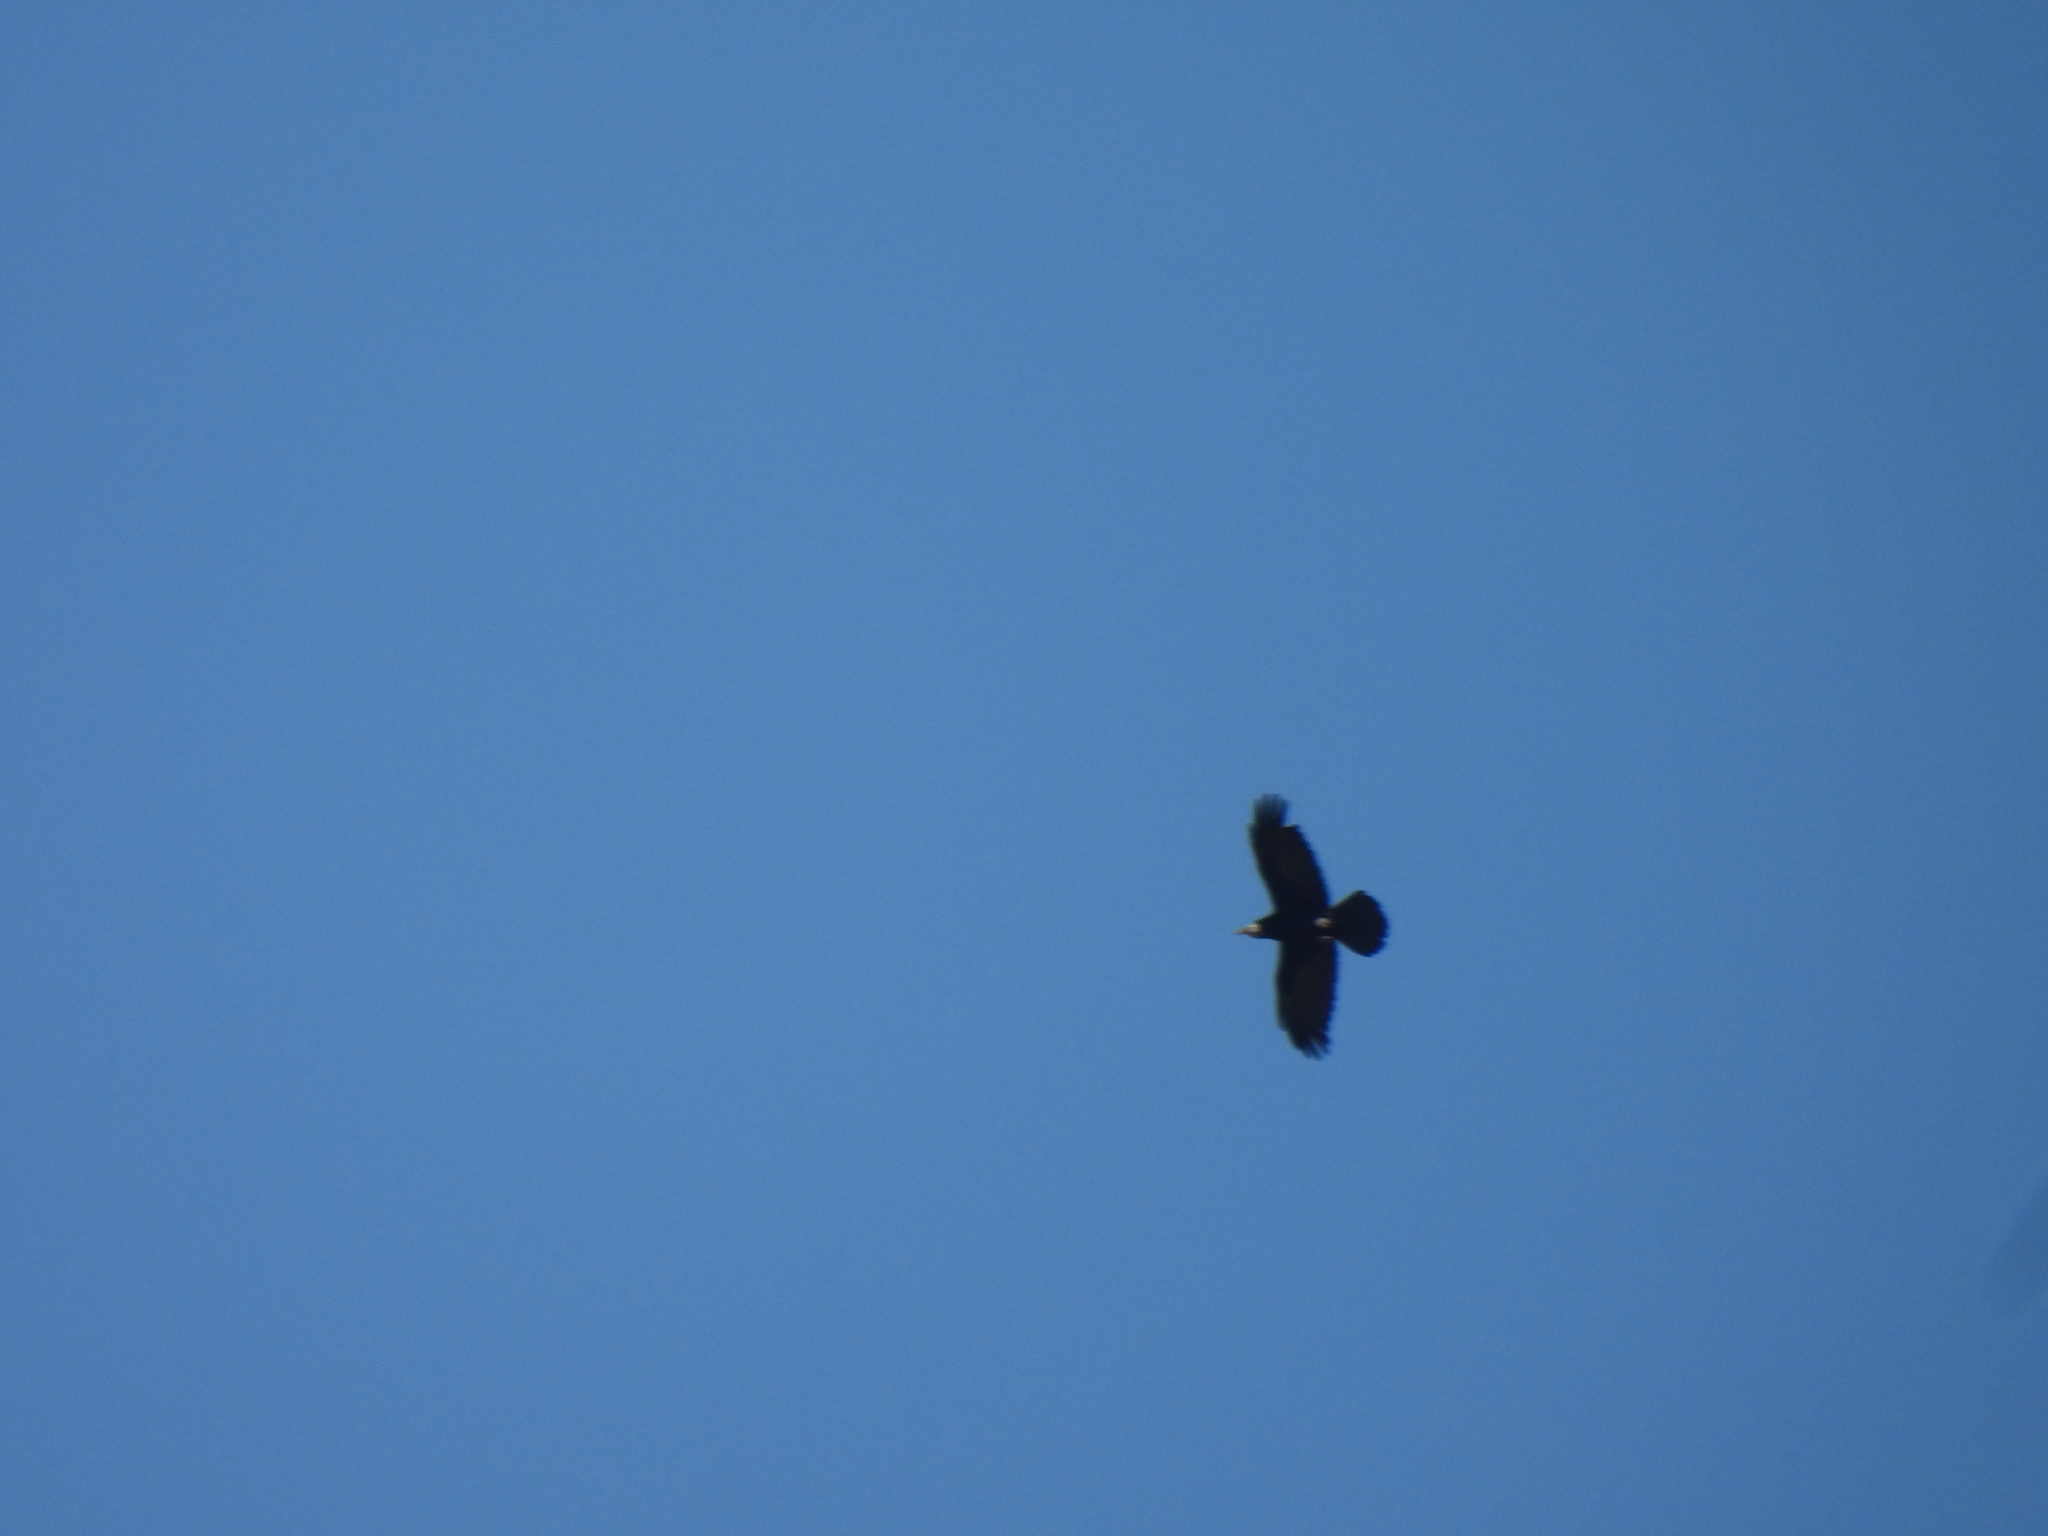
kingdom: Animalia
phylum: Chordata
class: Aves
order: Passeriformes
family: Corvidae
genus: Corvus
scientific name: Corvus frugilegus
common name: Rook
